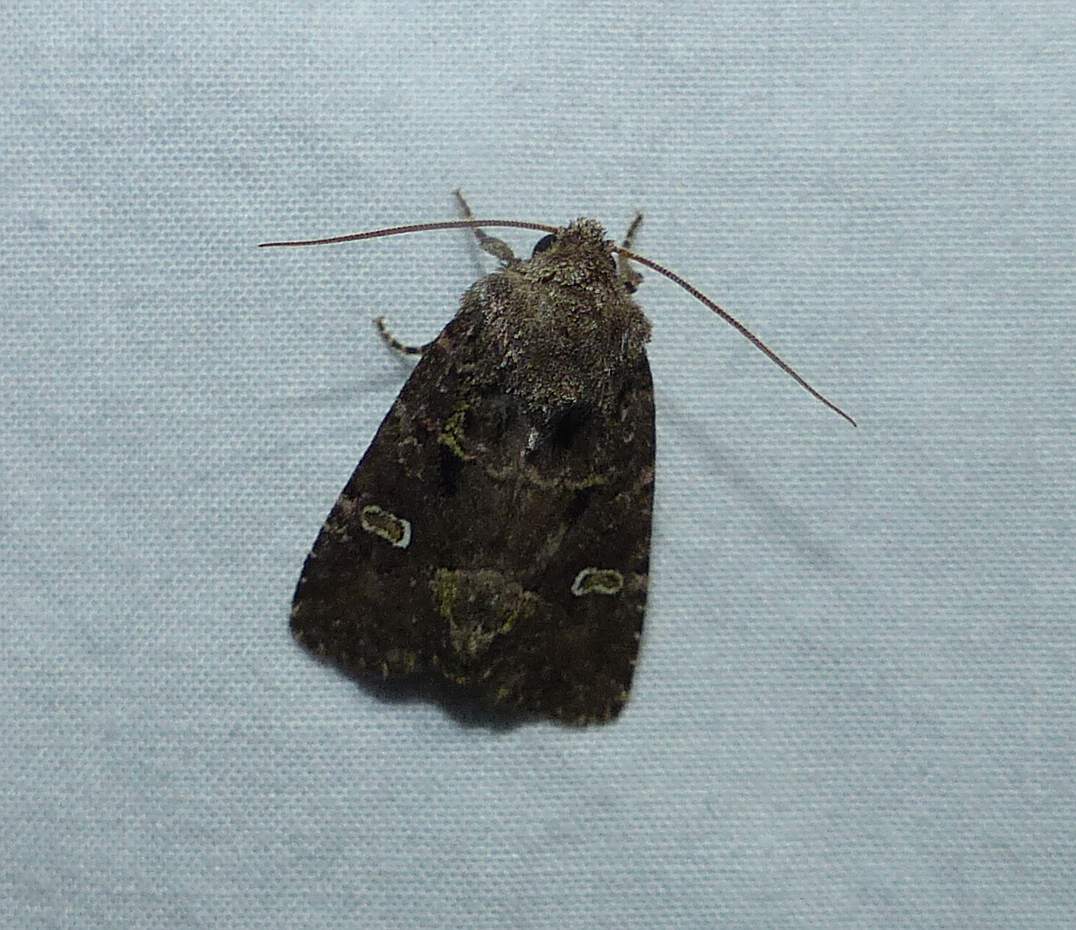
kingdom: Animalia
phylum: Arthropoda
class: Insecta
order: Lepidoptera
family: Noctuidae
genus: Lacinipolia
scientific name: Lacinipolia renigera
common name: Kidney-spotted minor
